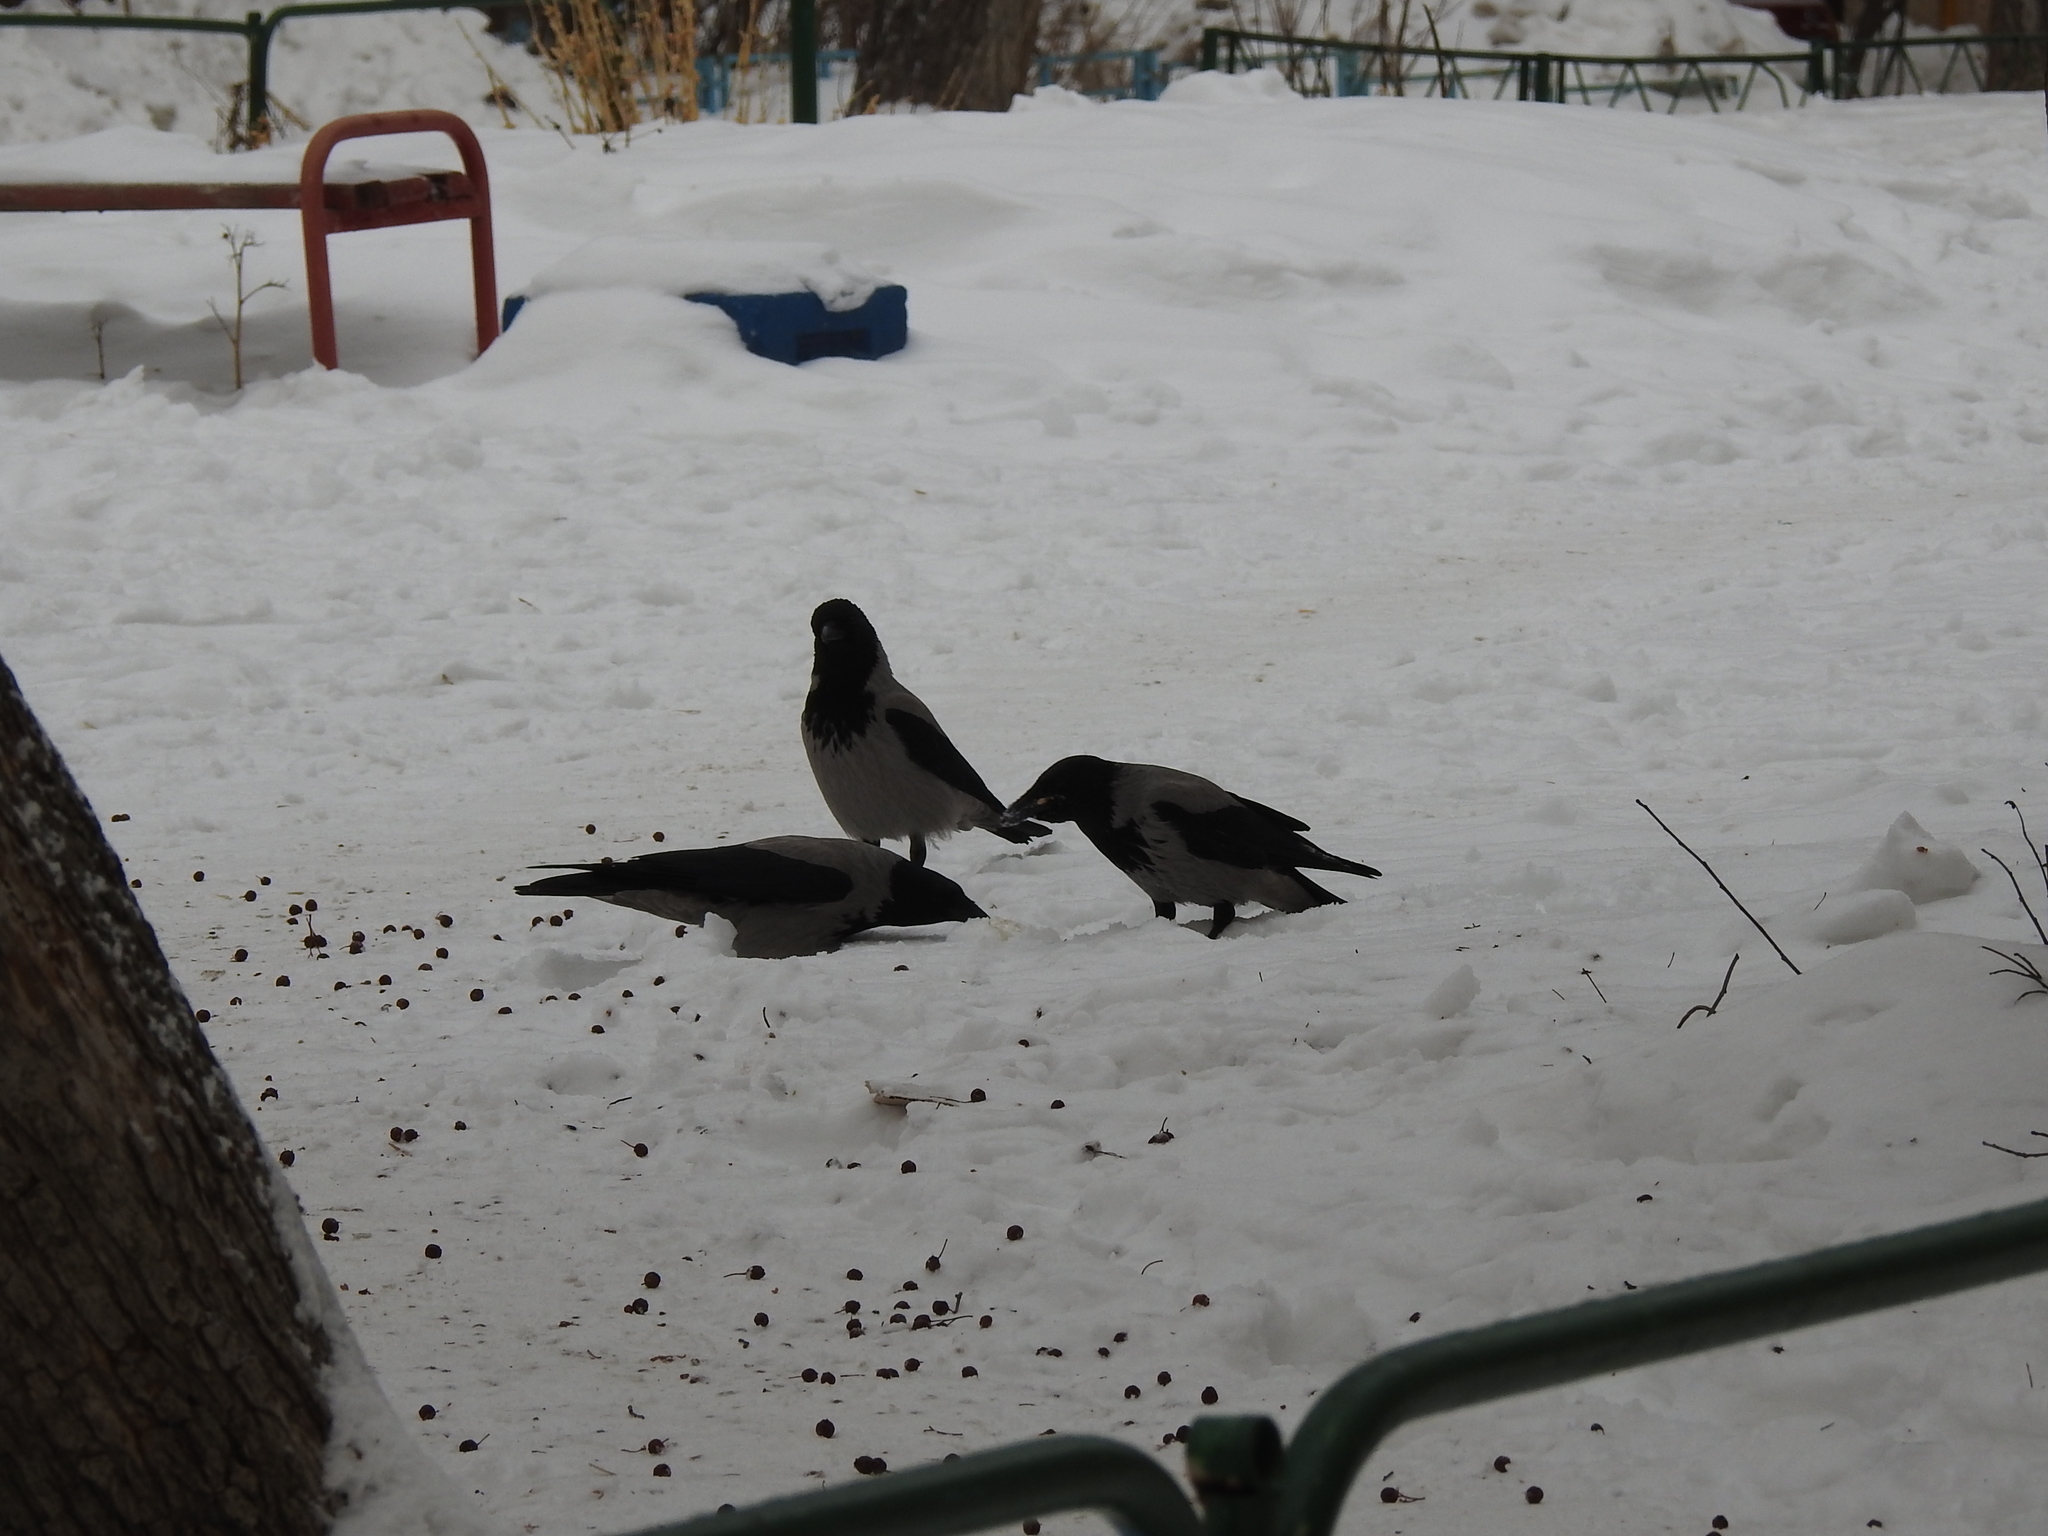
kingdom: Animalia
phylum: Chordata
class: Aves
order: Passeriformes
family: Corvidae
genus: Corvus
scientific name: Corvus cornix
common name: Hooded crow
